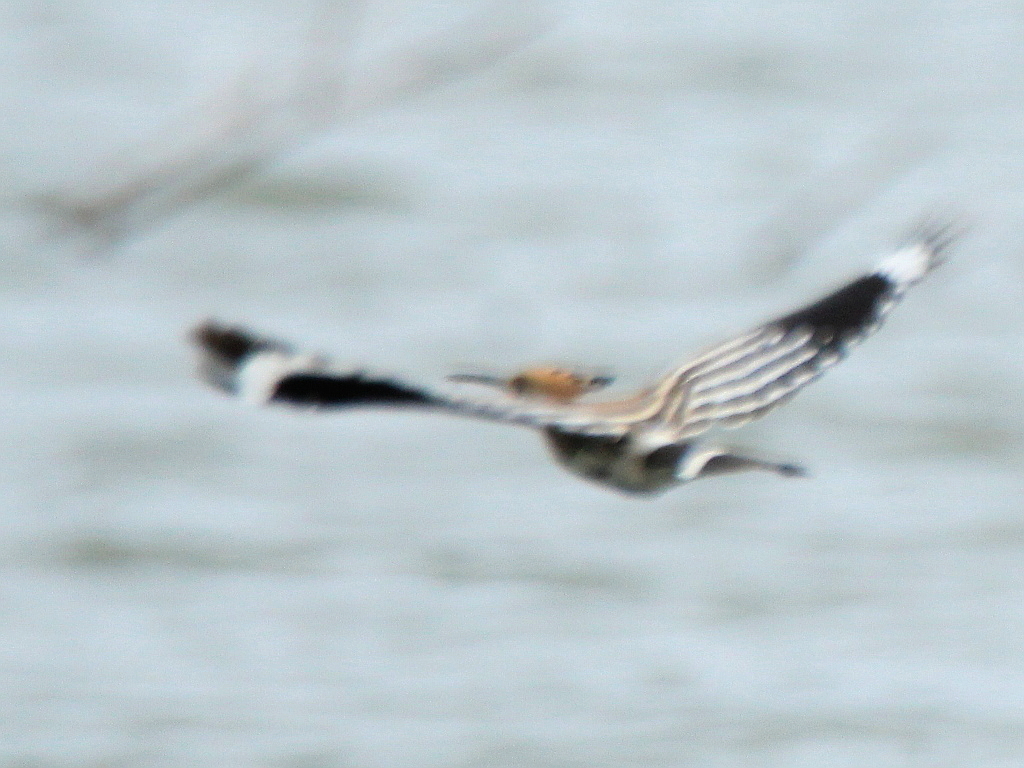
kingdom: Animalia
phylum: Chordata
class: Aves
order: Bucerotiformes
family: Upupidae
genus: Upupa
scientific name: Upupa epops
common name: Eurasian hoopoe
